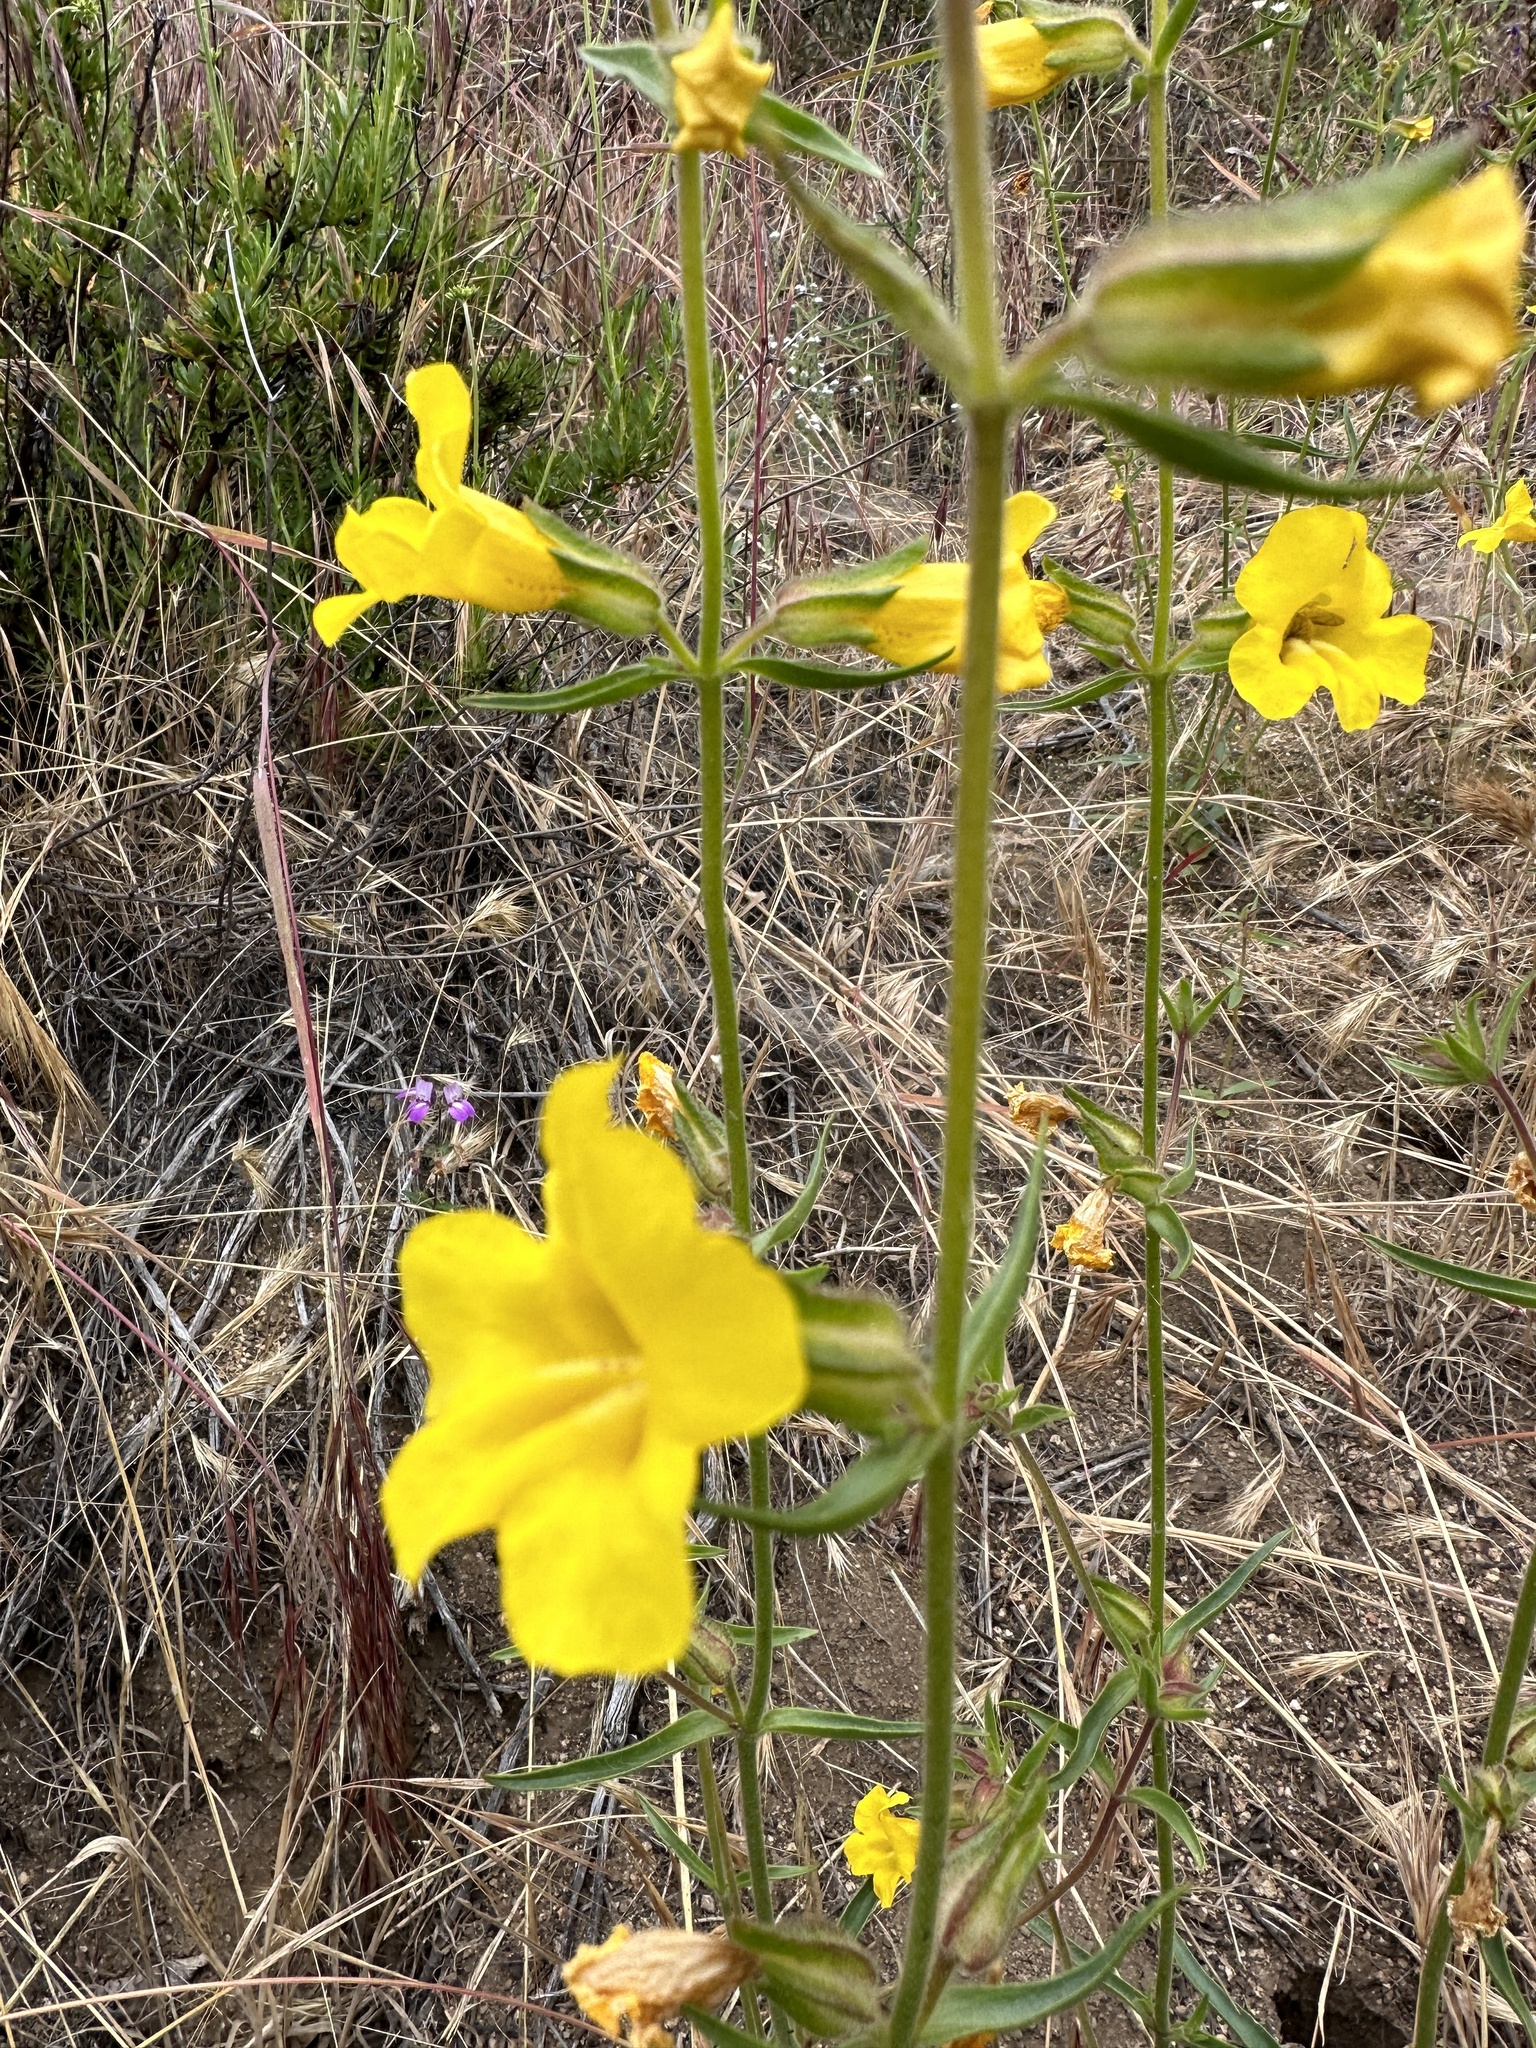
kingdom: Plantae
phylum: Tracheophyta
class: Magnoliopsida
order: Lamiales
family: Phrymaceae
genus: Diplacus
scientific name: Diplacus brevipes
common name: Wide-throat yellow monkey-flower
